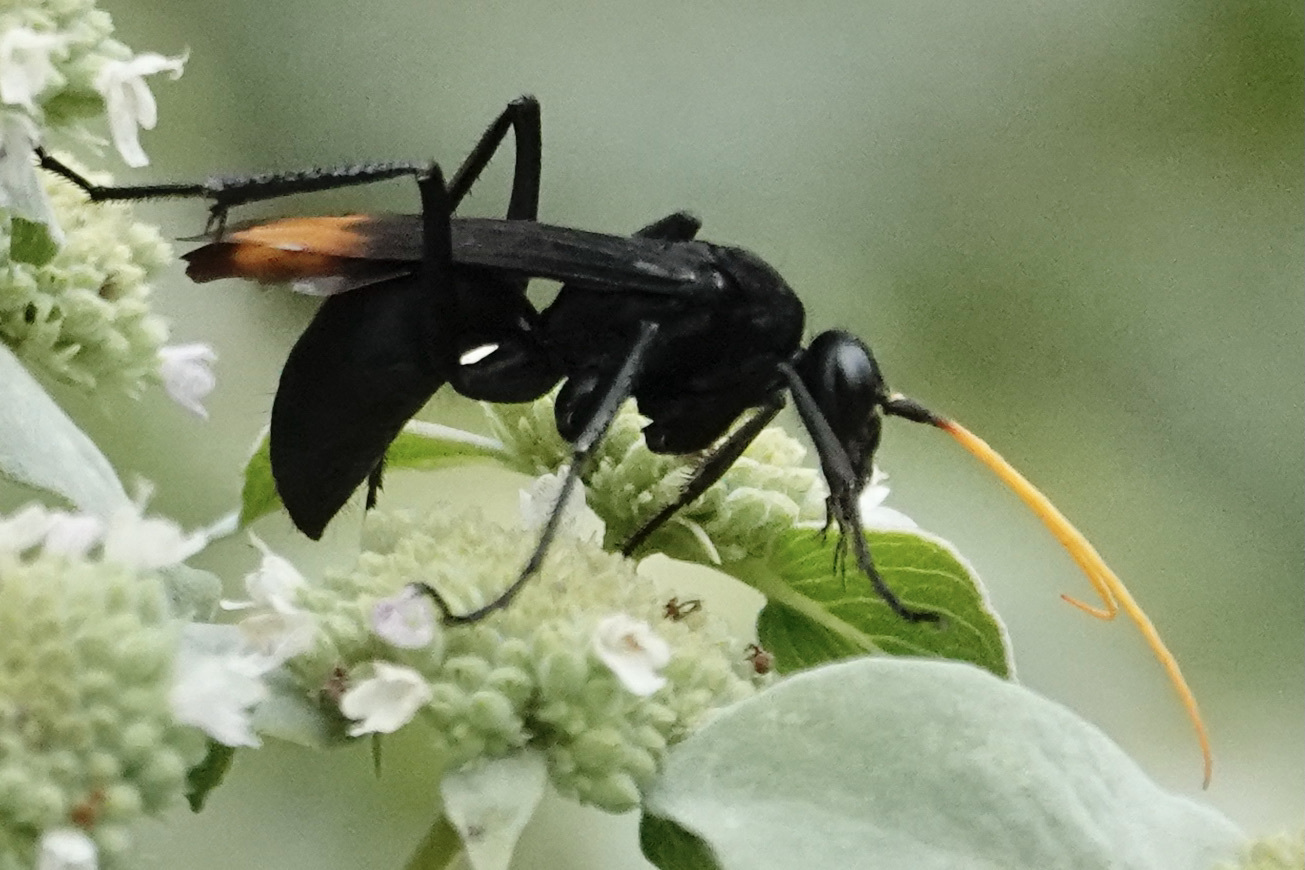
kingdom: Animalia
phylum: Arthropoda
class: Insecta
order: Hymenoptera
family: Pompilidae
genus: Entypus
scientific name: Entypus unifasciatus
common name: Eastern tawny-horned spider wasp
